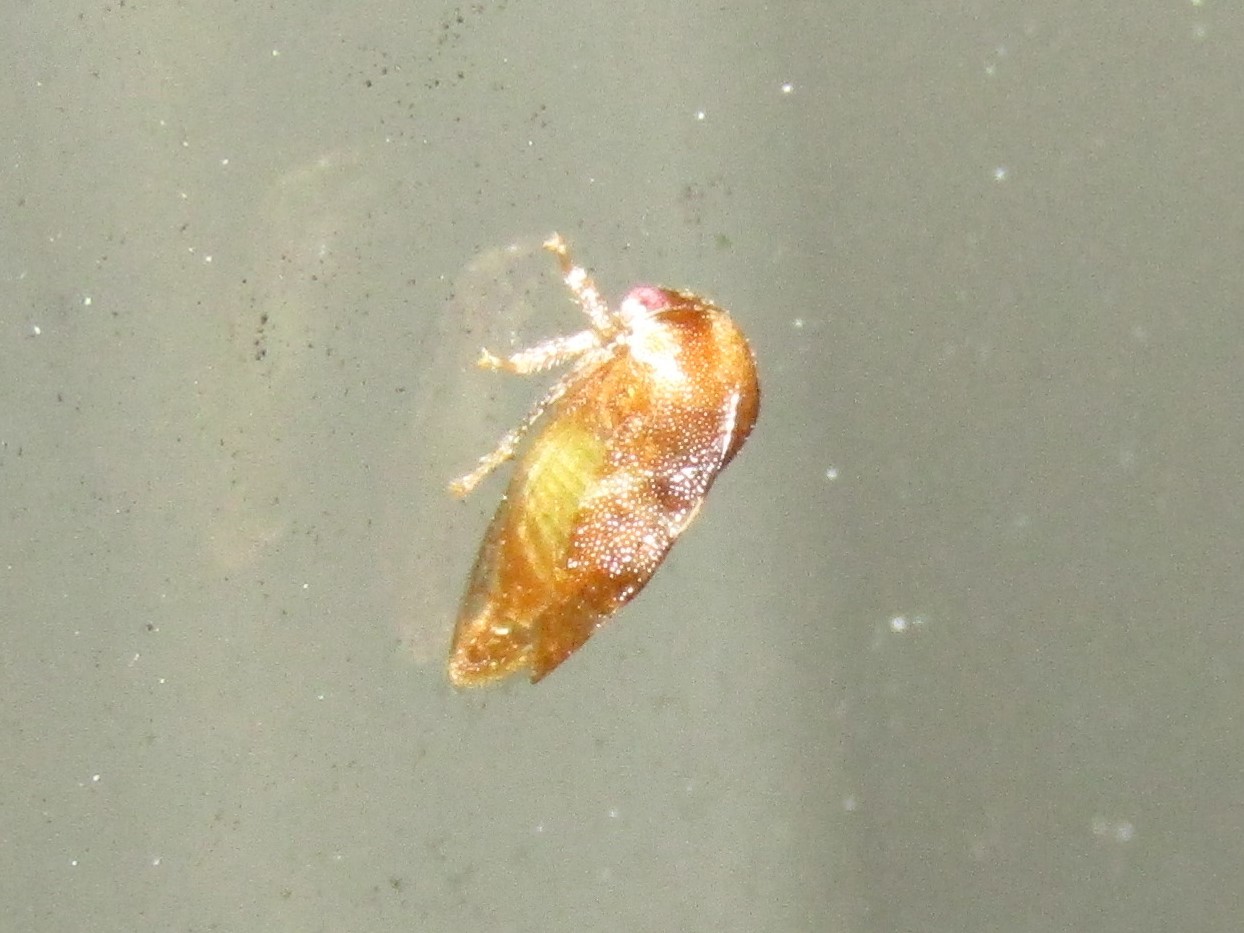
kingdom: Animalia
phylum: Arthropoda
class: Insecta
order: Hemiptera
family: Membracidae
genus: Cyrtolobus
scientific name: Cyrtolobus togatus
